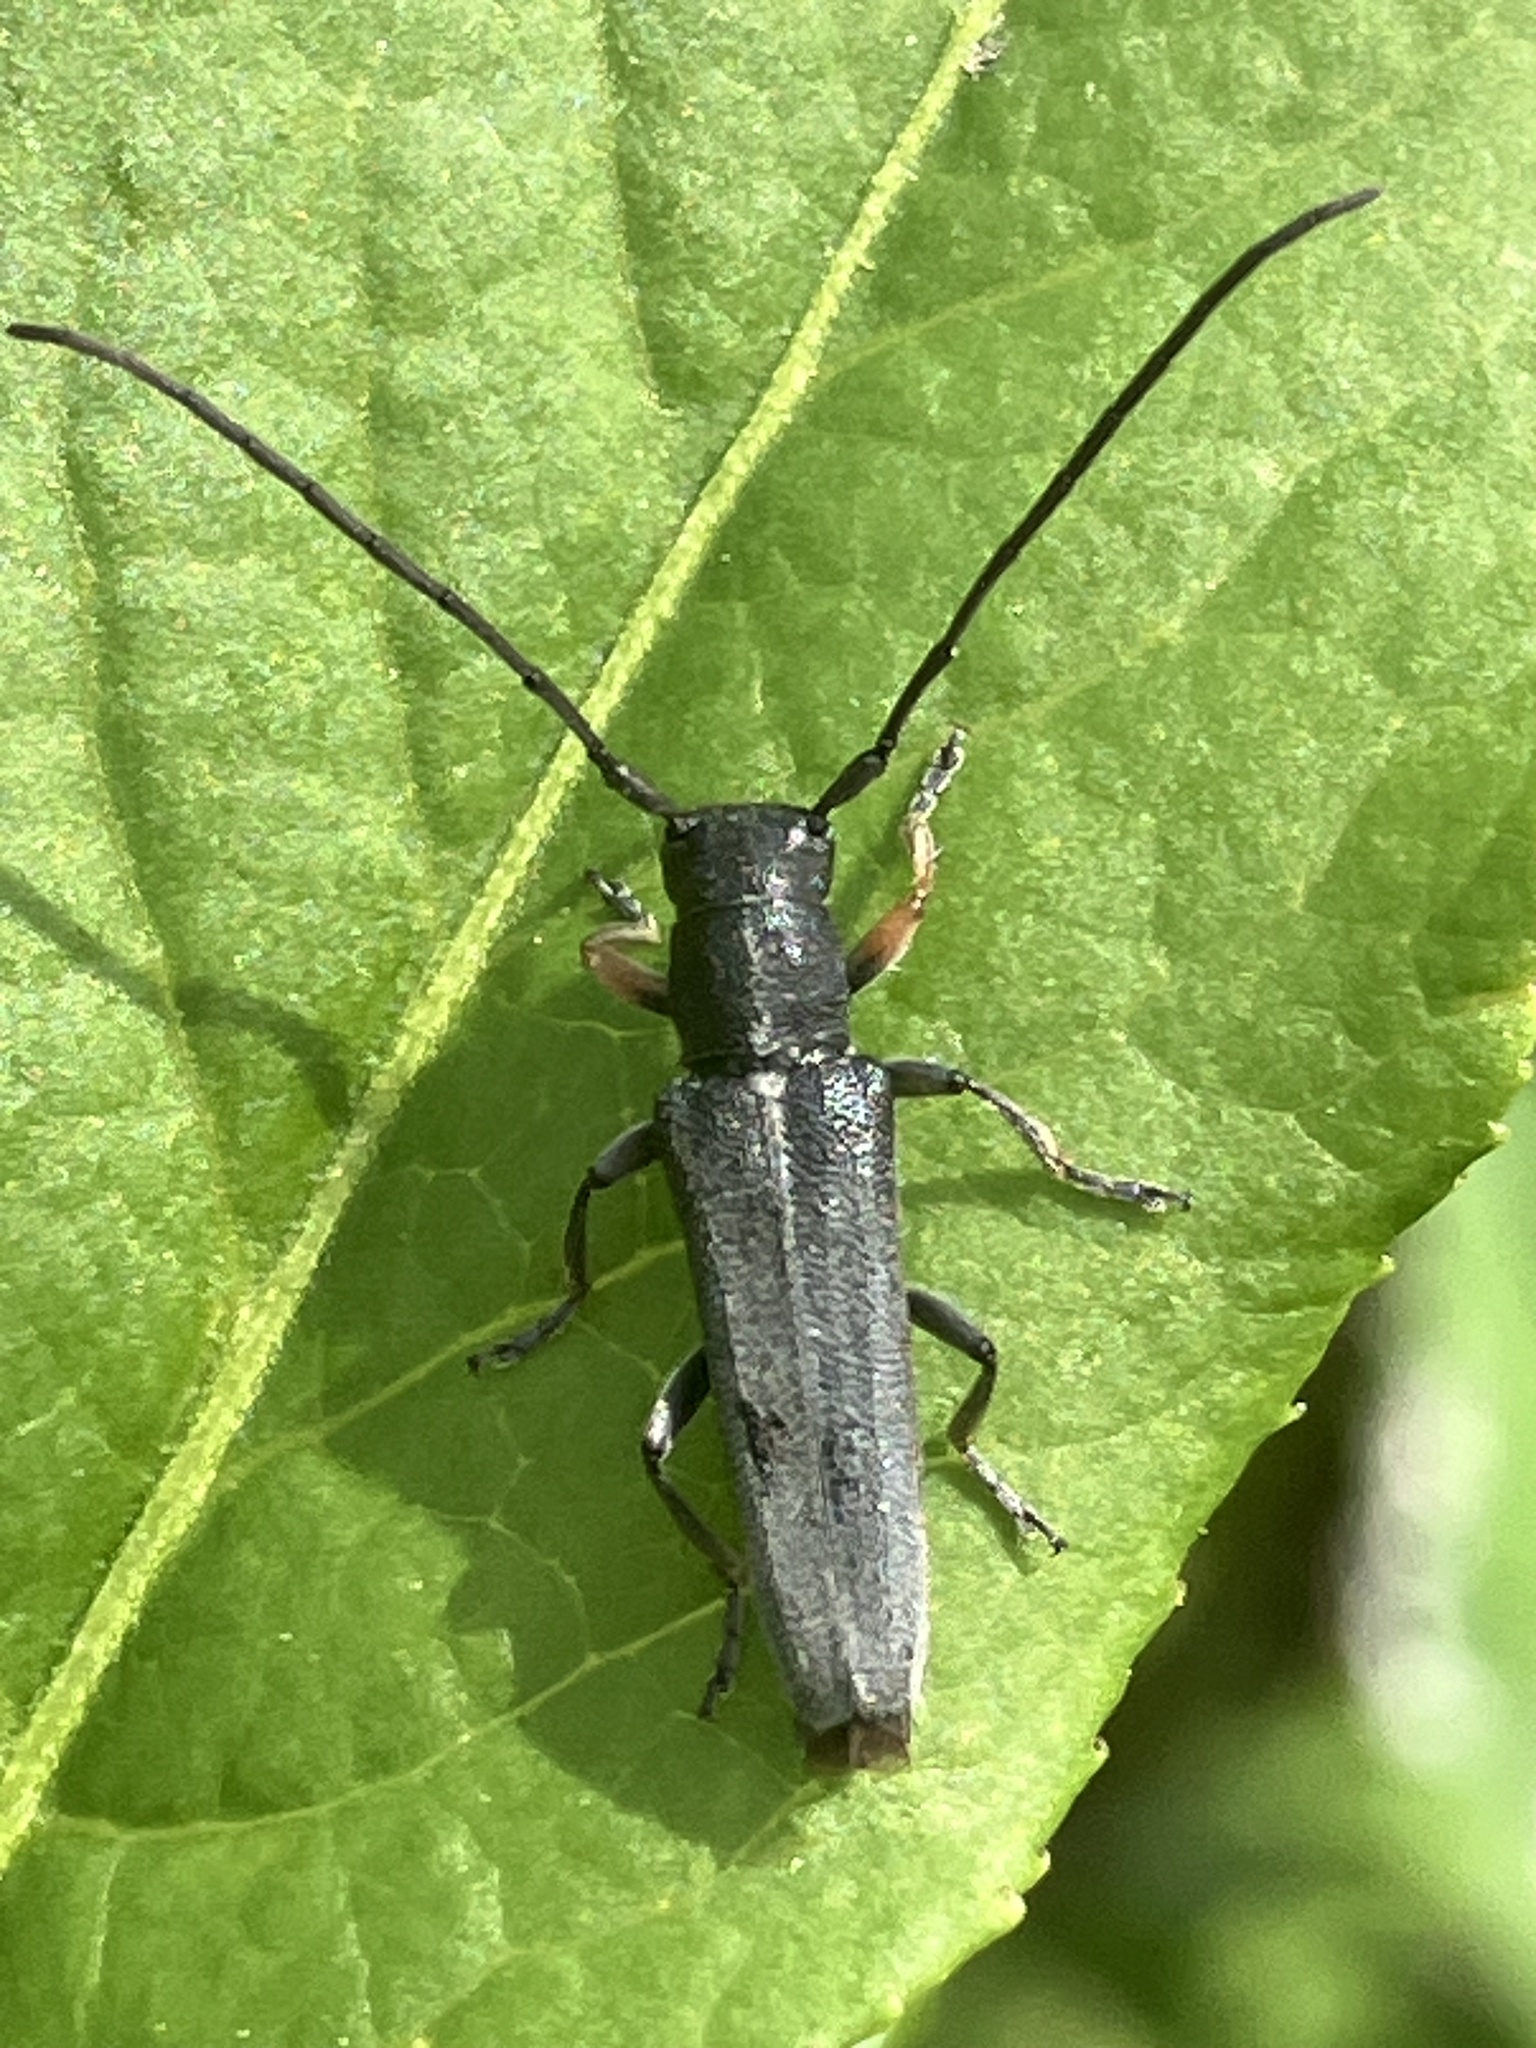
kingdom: Animalia
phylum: Arthropoda
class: Insecta
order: Coleoptera
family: Cerambycidae
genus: Phytoecia
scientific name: Phytoecia cylindrica
